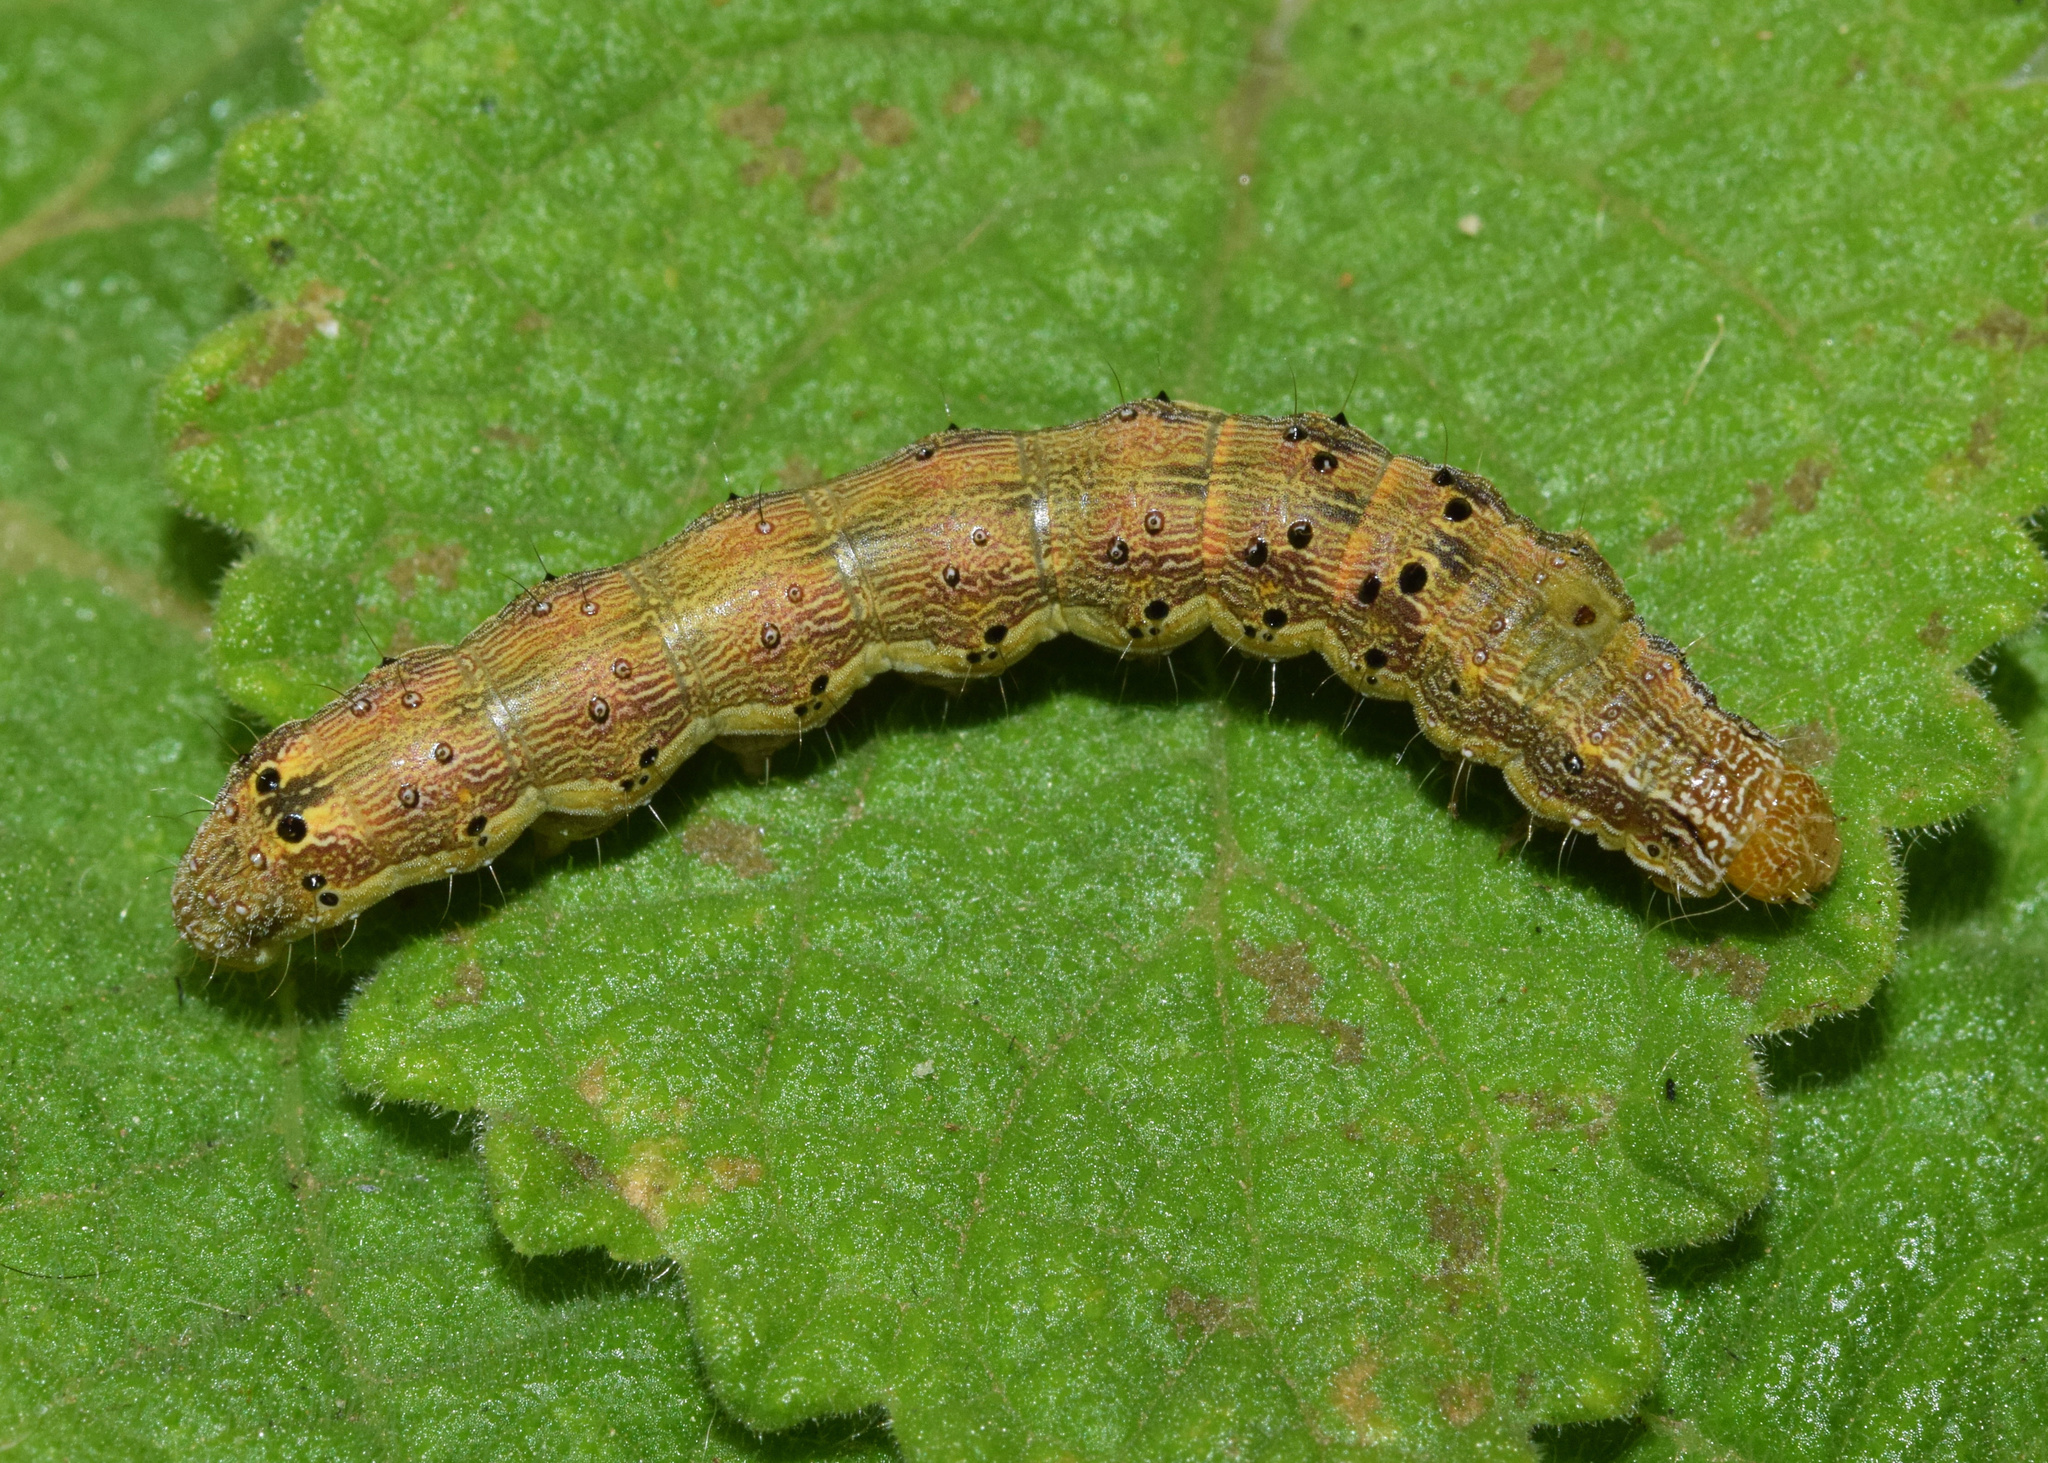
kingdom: Animalia
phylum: Arthropoda
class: Insecta
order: Lepidoptera
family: Noctuidae
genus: Helicoverpa
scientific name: Helicoverpa armigera
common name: Cotton bollworm
